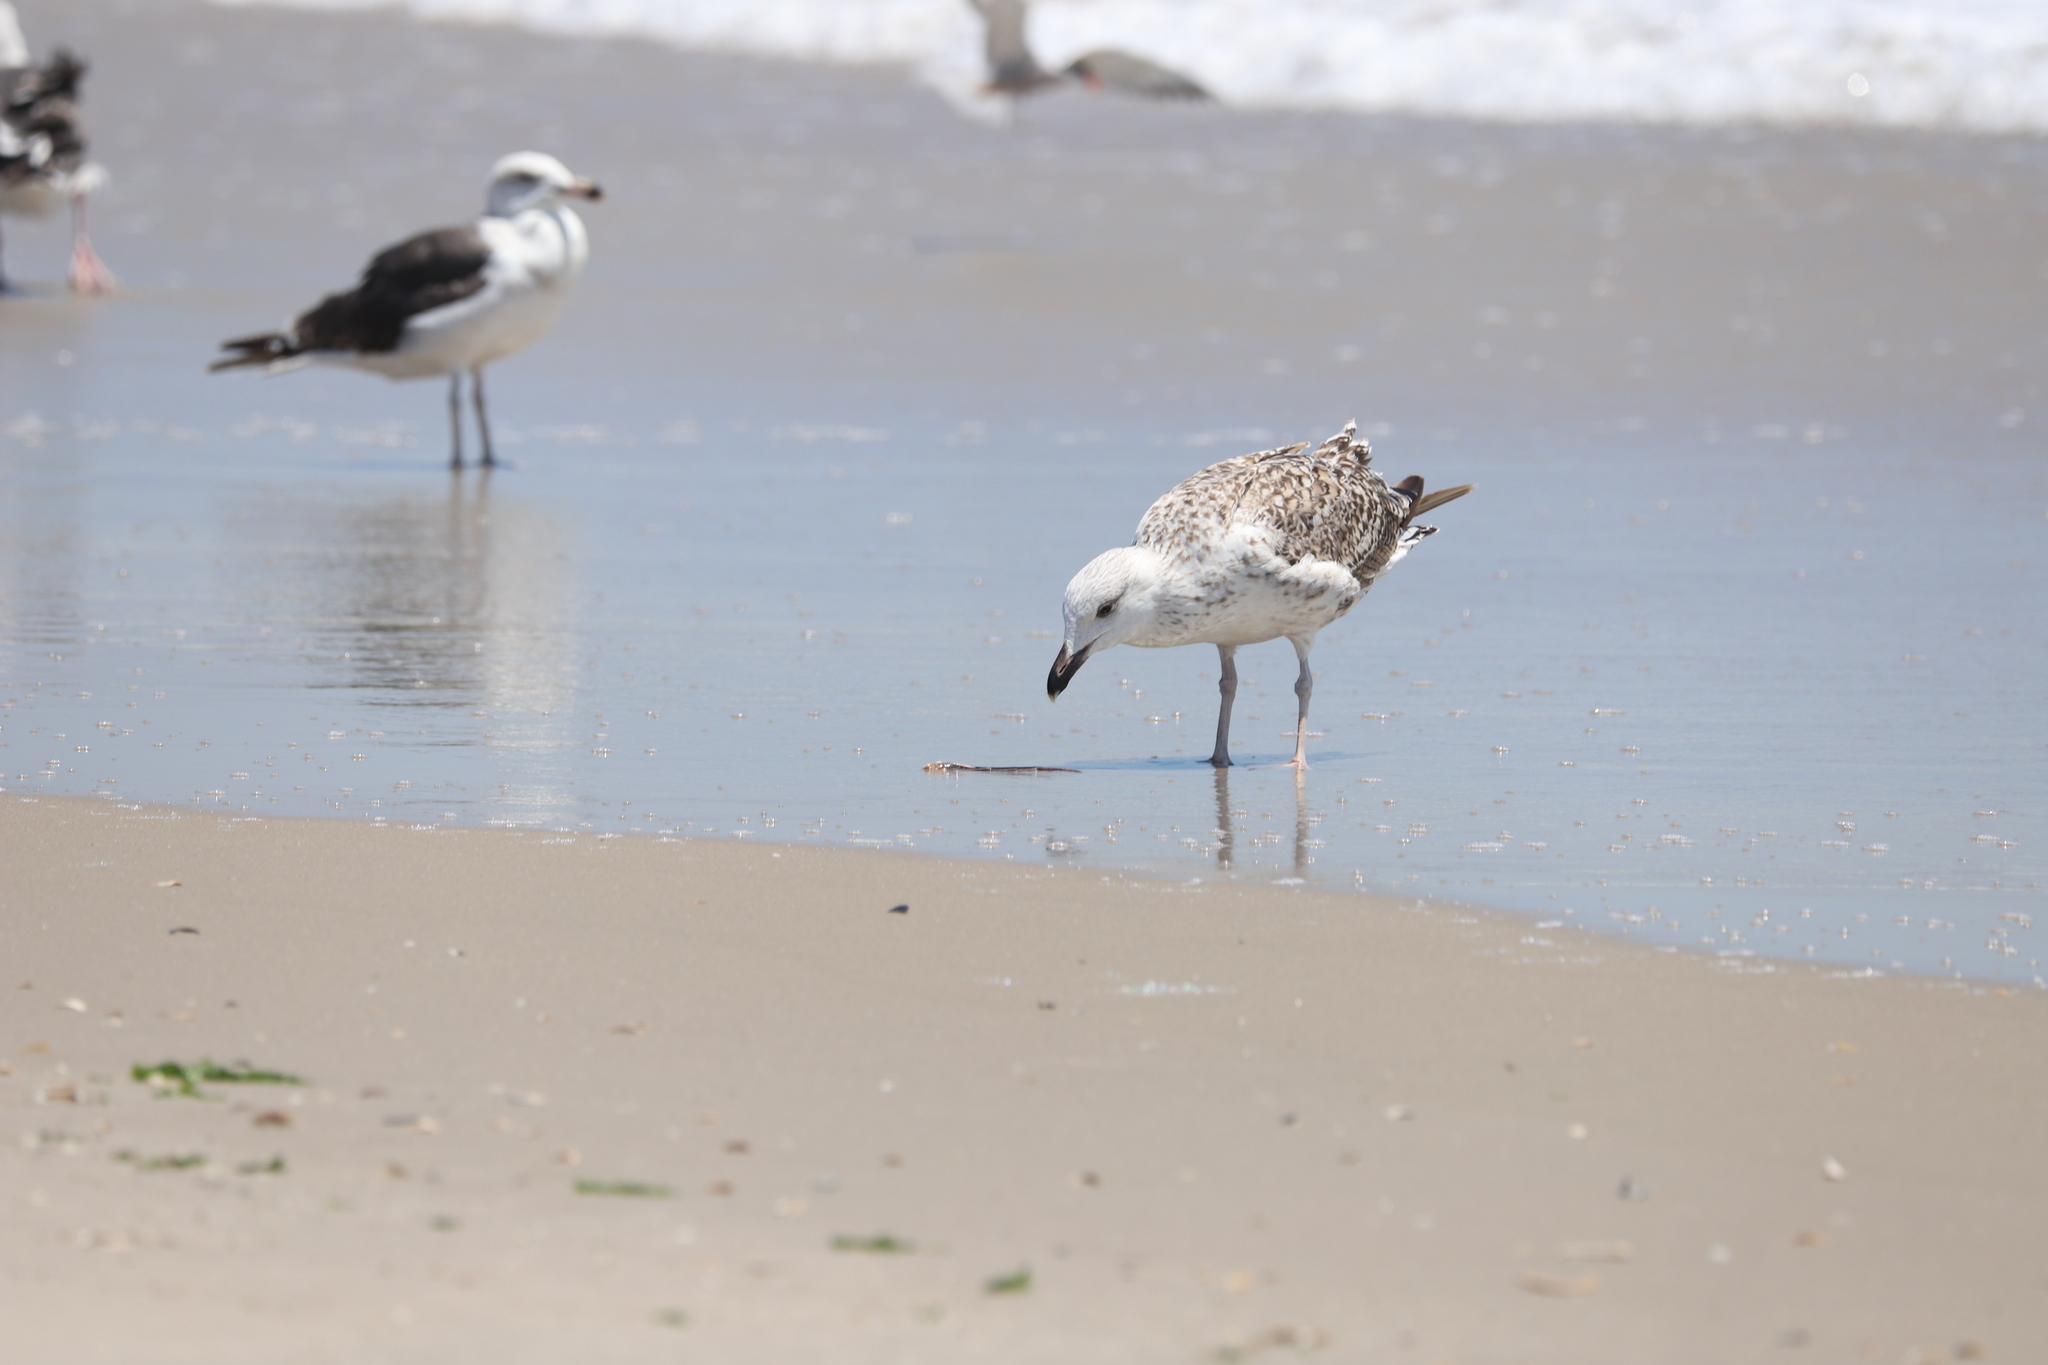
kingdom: Animalia
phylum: Chordata
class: Aves
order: Charadriiformes
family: Laridae
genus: Larus
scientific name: Larus marinus
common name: Great black-backed gull
